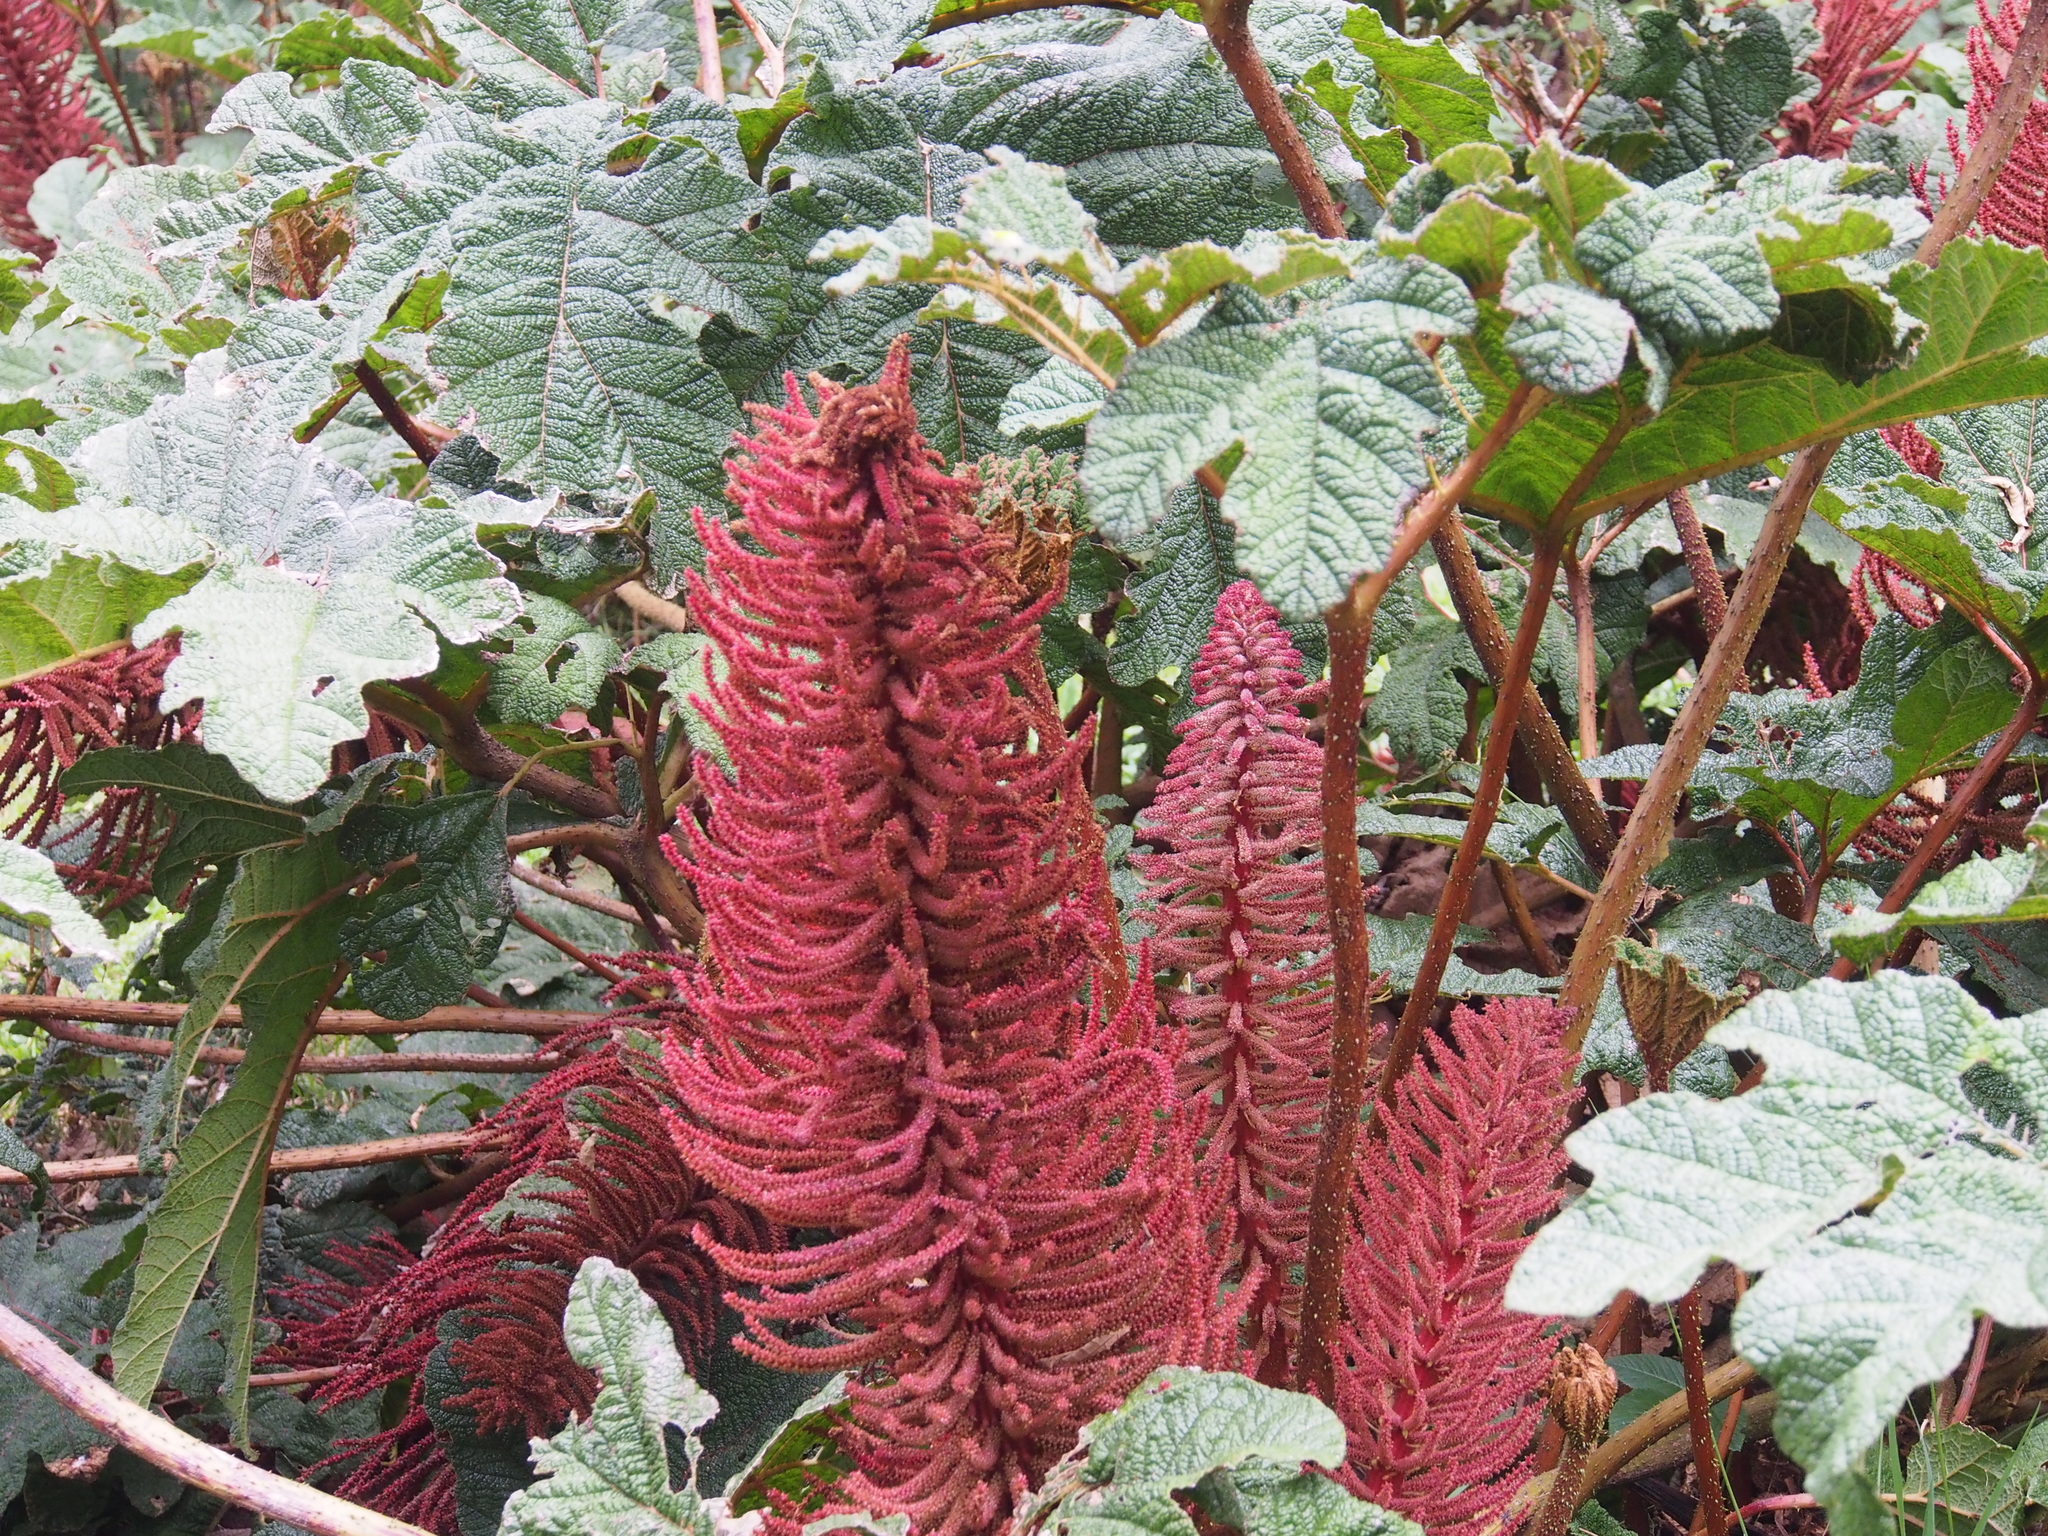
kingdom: Plantae
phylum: Tracheophyta
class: Magnoliopsida
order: Gunnerales
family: Gunneraceae
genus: Gunnera
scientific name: Gunnera talamancana
